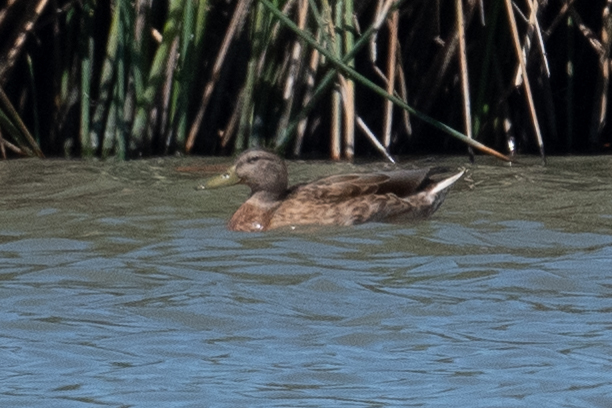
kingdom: Animalia
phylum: Chordata
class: Aves
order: Anseriformes
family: Anatidae
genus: Anas
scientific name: Anas platyrhynchos
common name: Mallard
